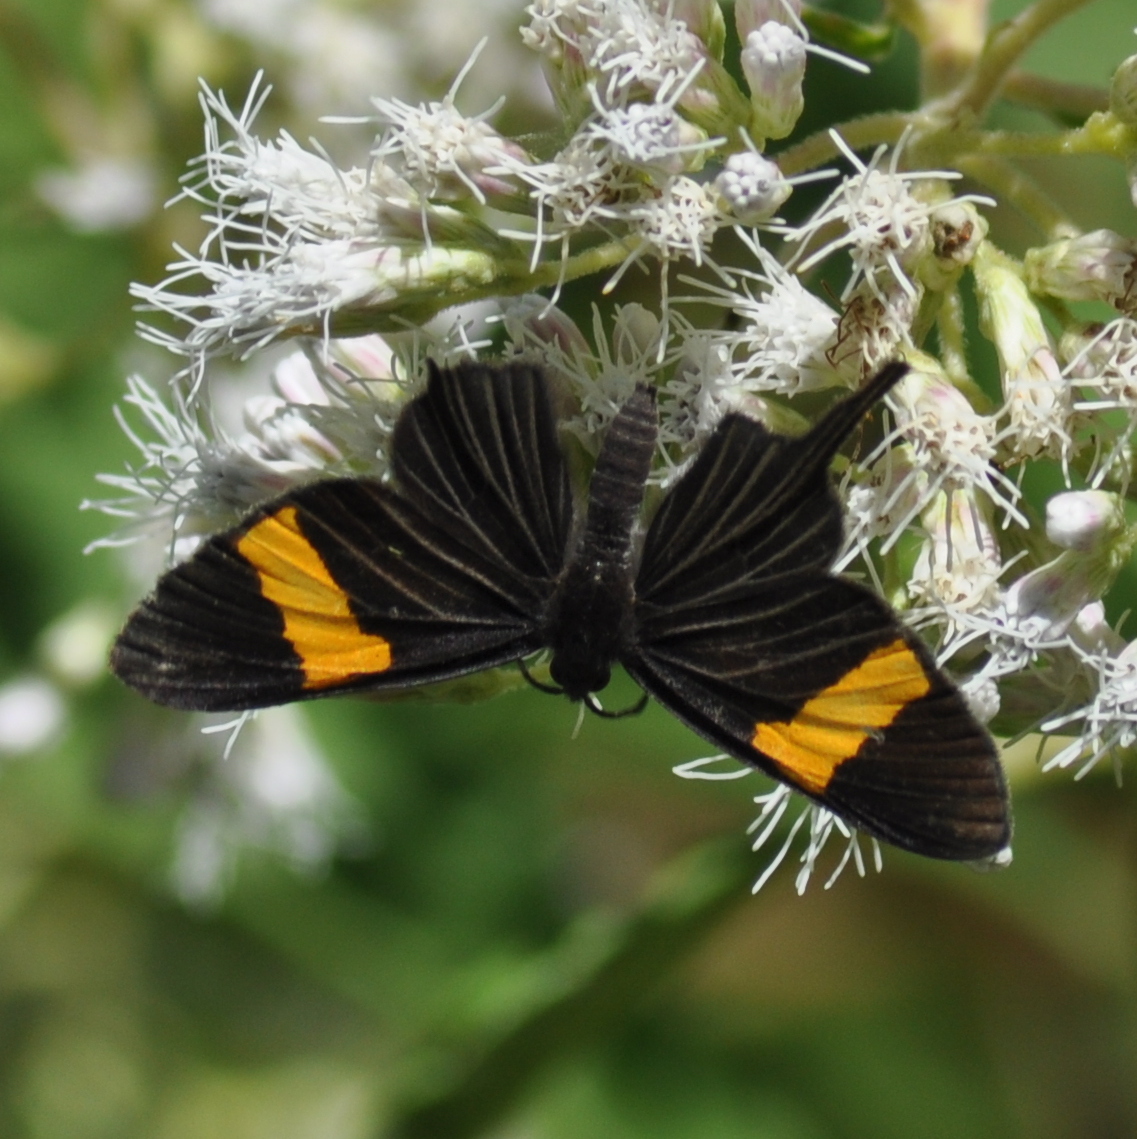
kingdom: Animalia
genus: Barbicornis
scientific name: Barbicornis basilis
